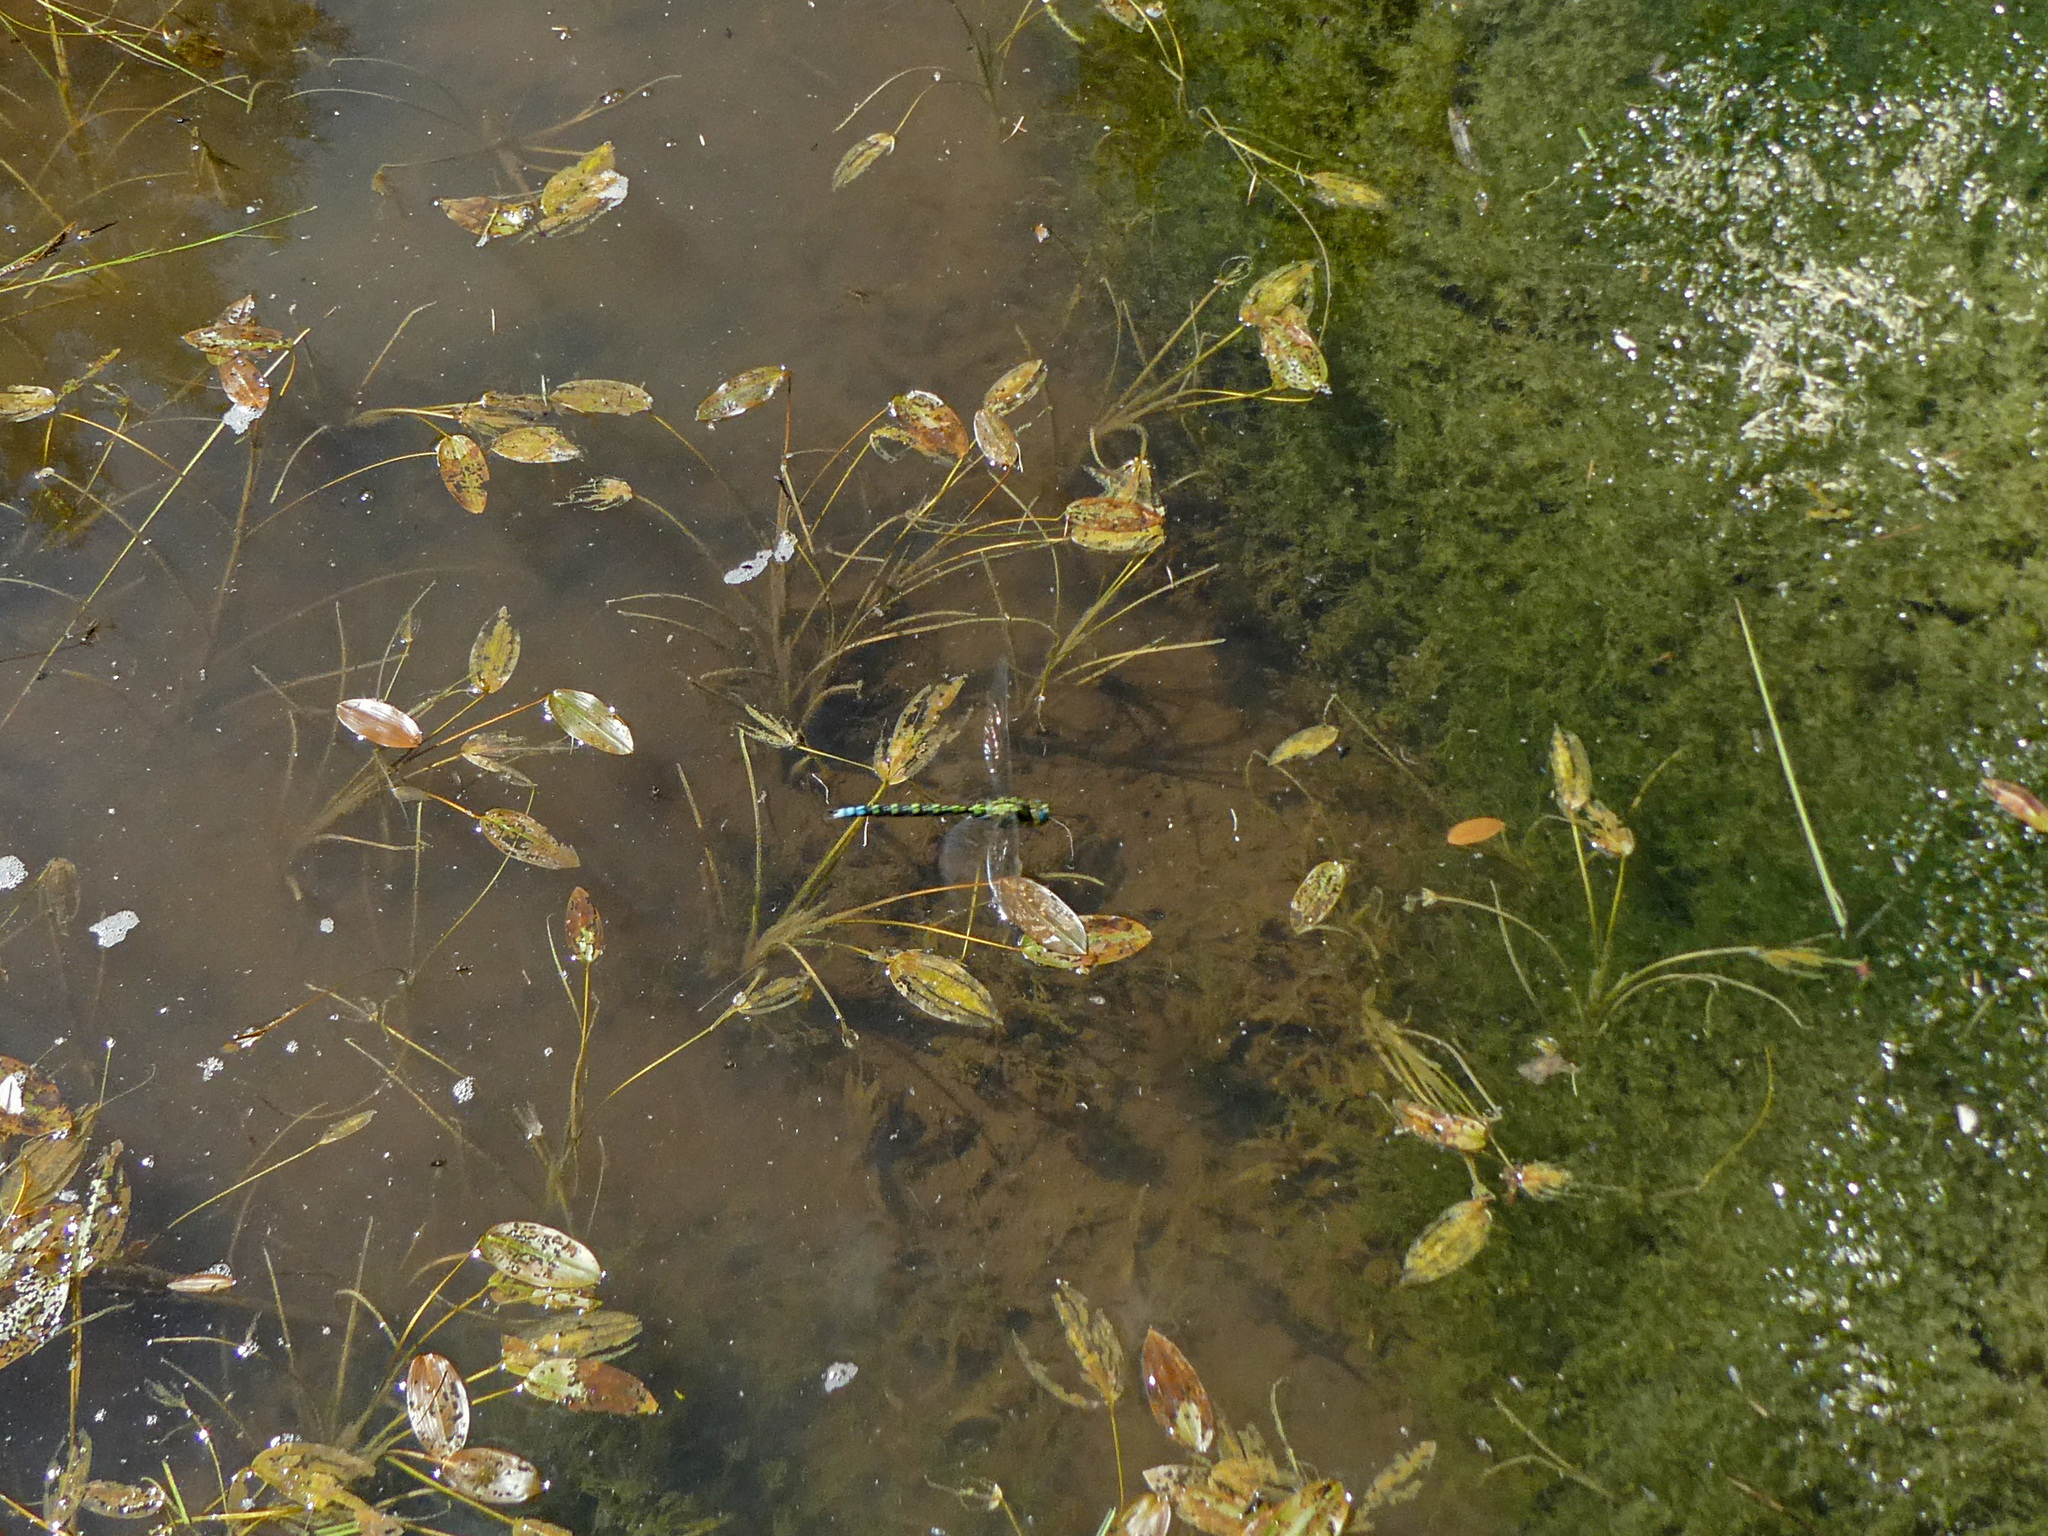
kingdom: Animalia
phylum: Arthropoda
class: Insecta
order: Odonata
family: Aeshnidae
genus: Aeshna
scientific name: Aeshna cyanea
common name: Southern hawker
